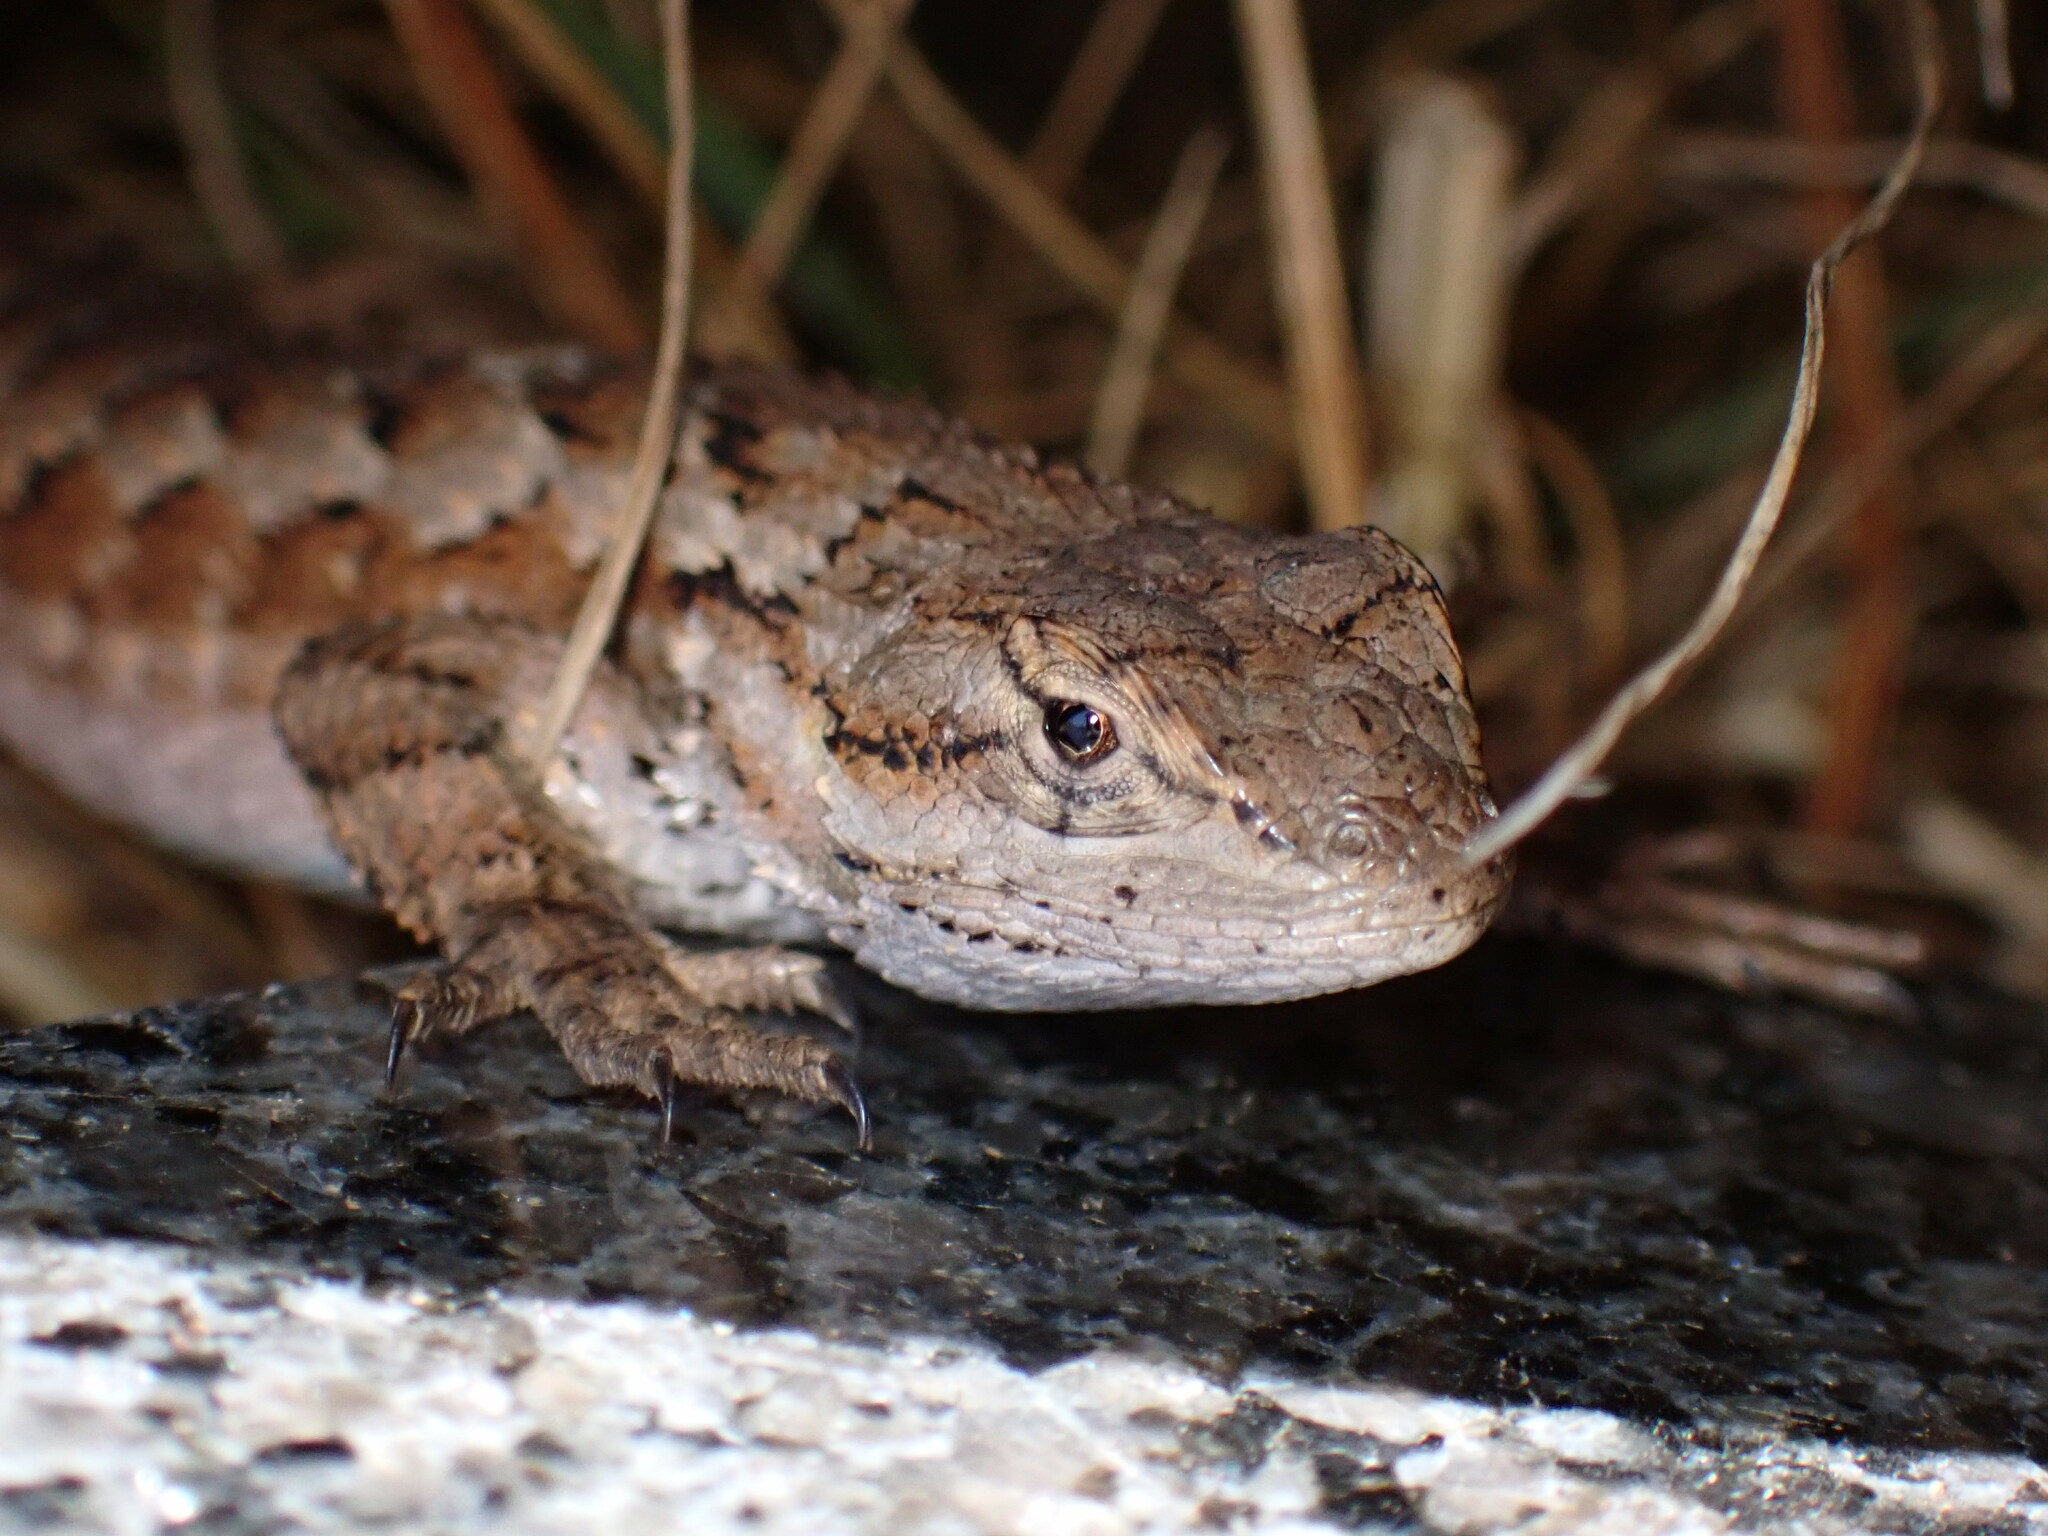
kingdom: Animalia
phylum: Chordata
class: Squamata
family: Phrynosomatidae
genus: Sceloporus
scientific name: Sceloporus occidentalis
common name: Western fence lizard
